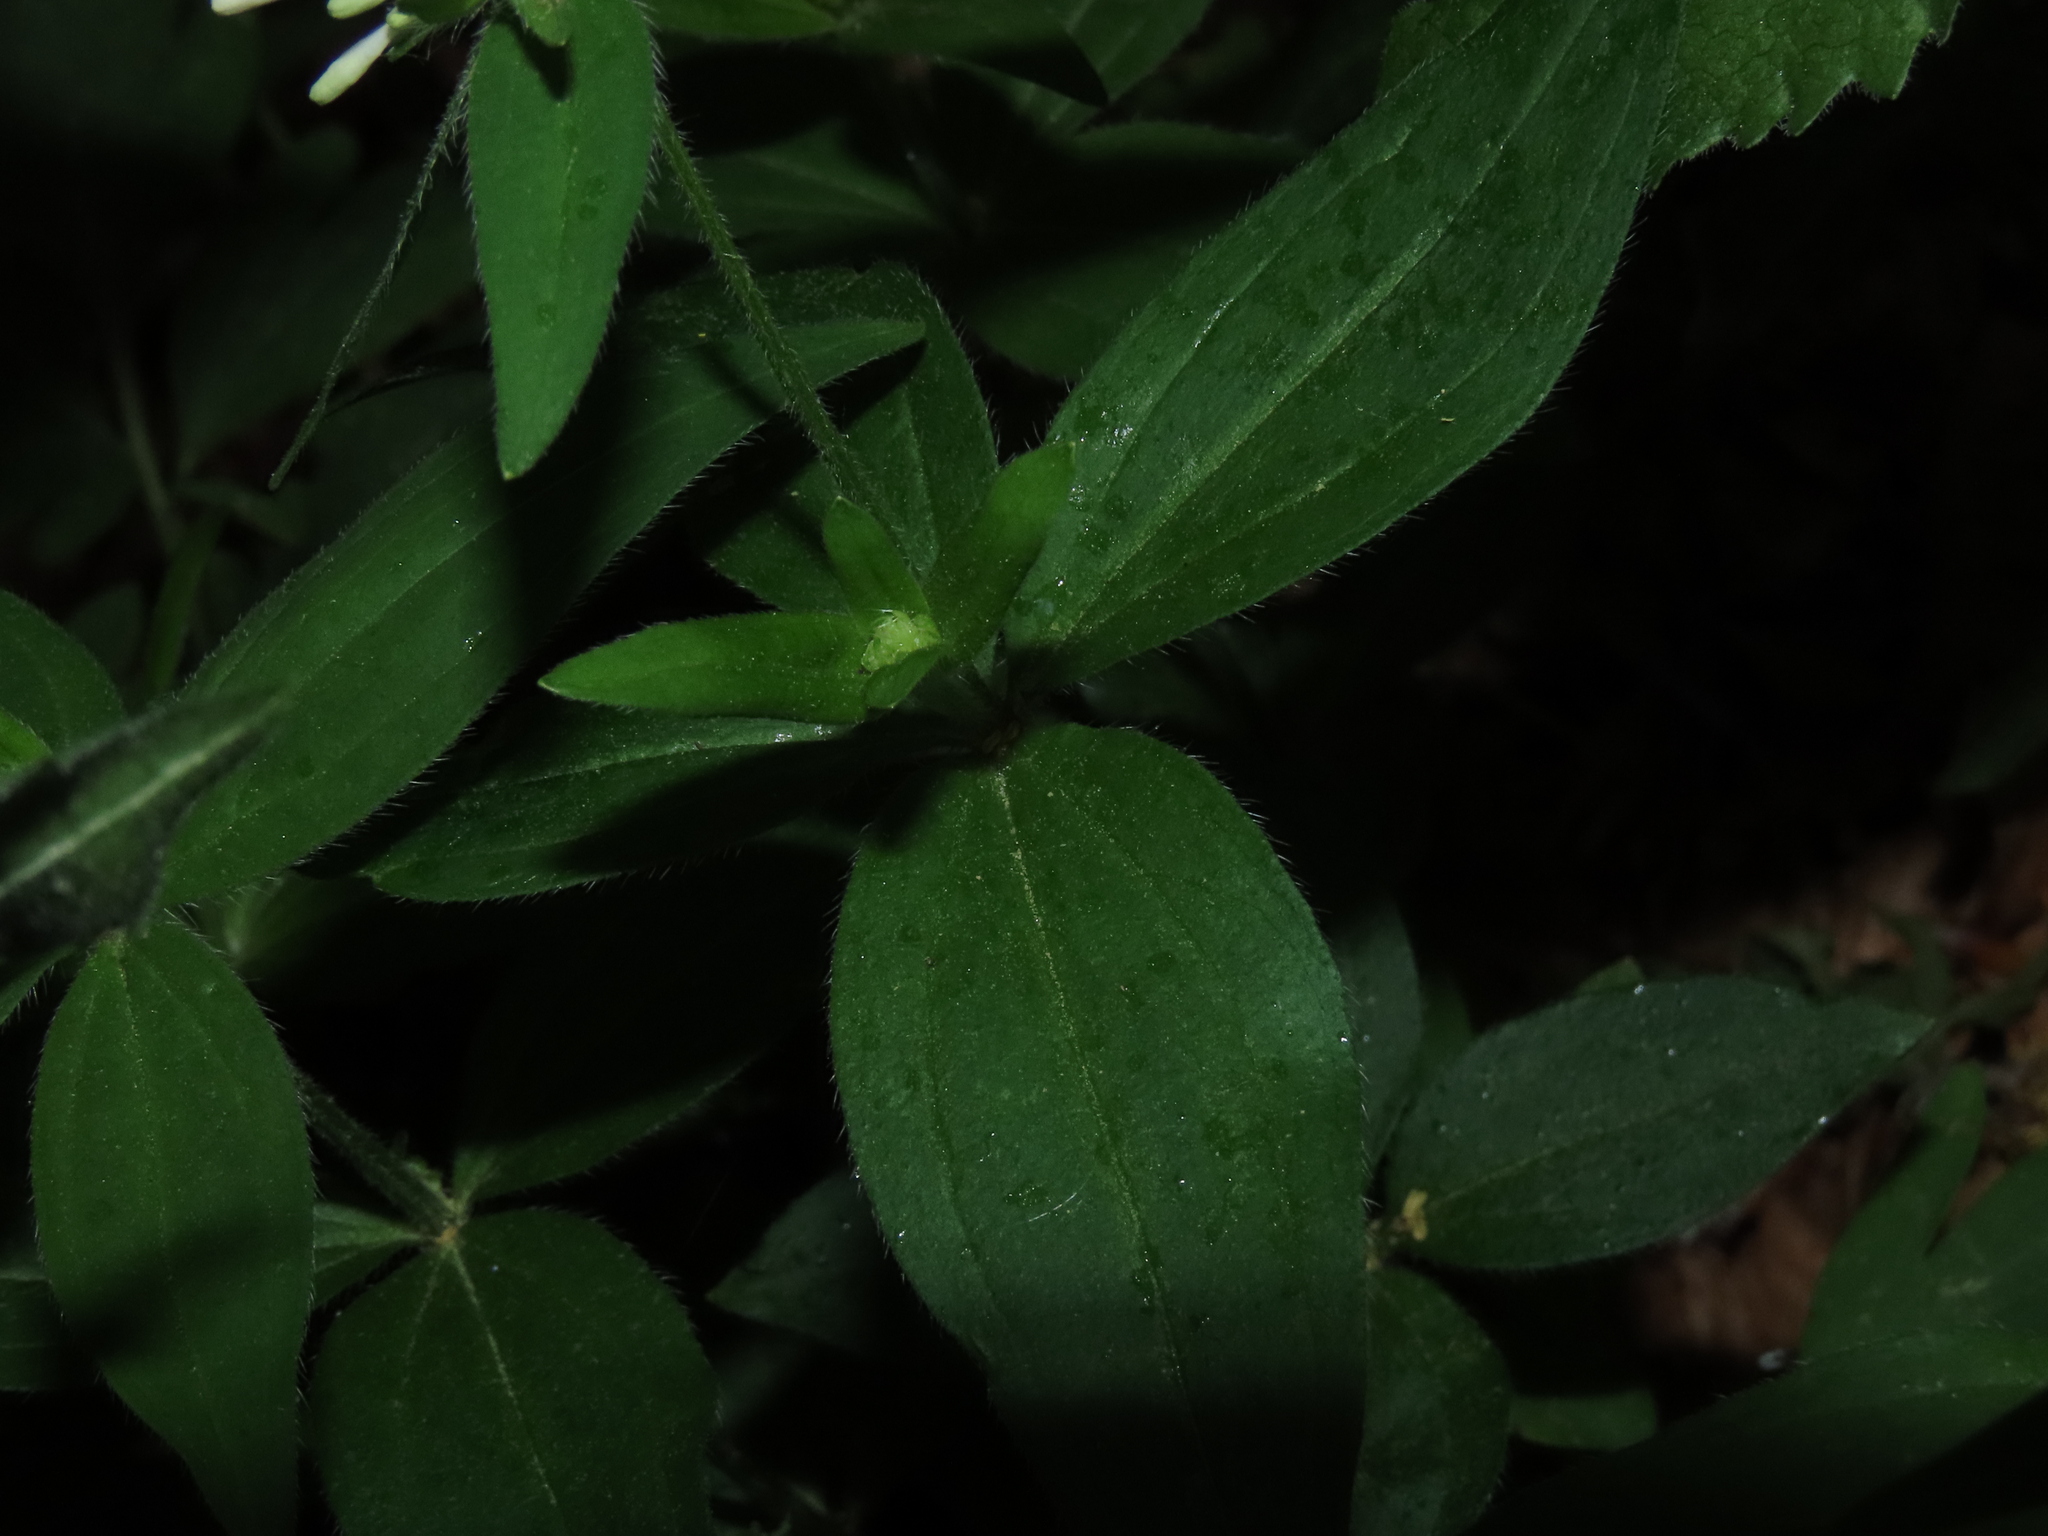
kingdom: Plantae
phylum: Tracheophyta
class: Magnoliopsida
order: Gentianales
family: Rubiaceae
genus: Asperula
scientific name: Asperula taurina
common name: Pink woodruff
